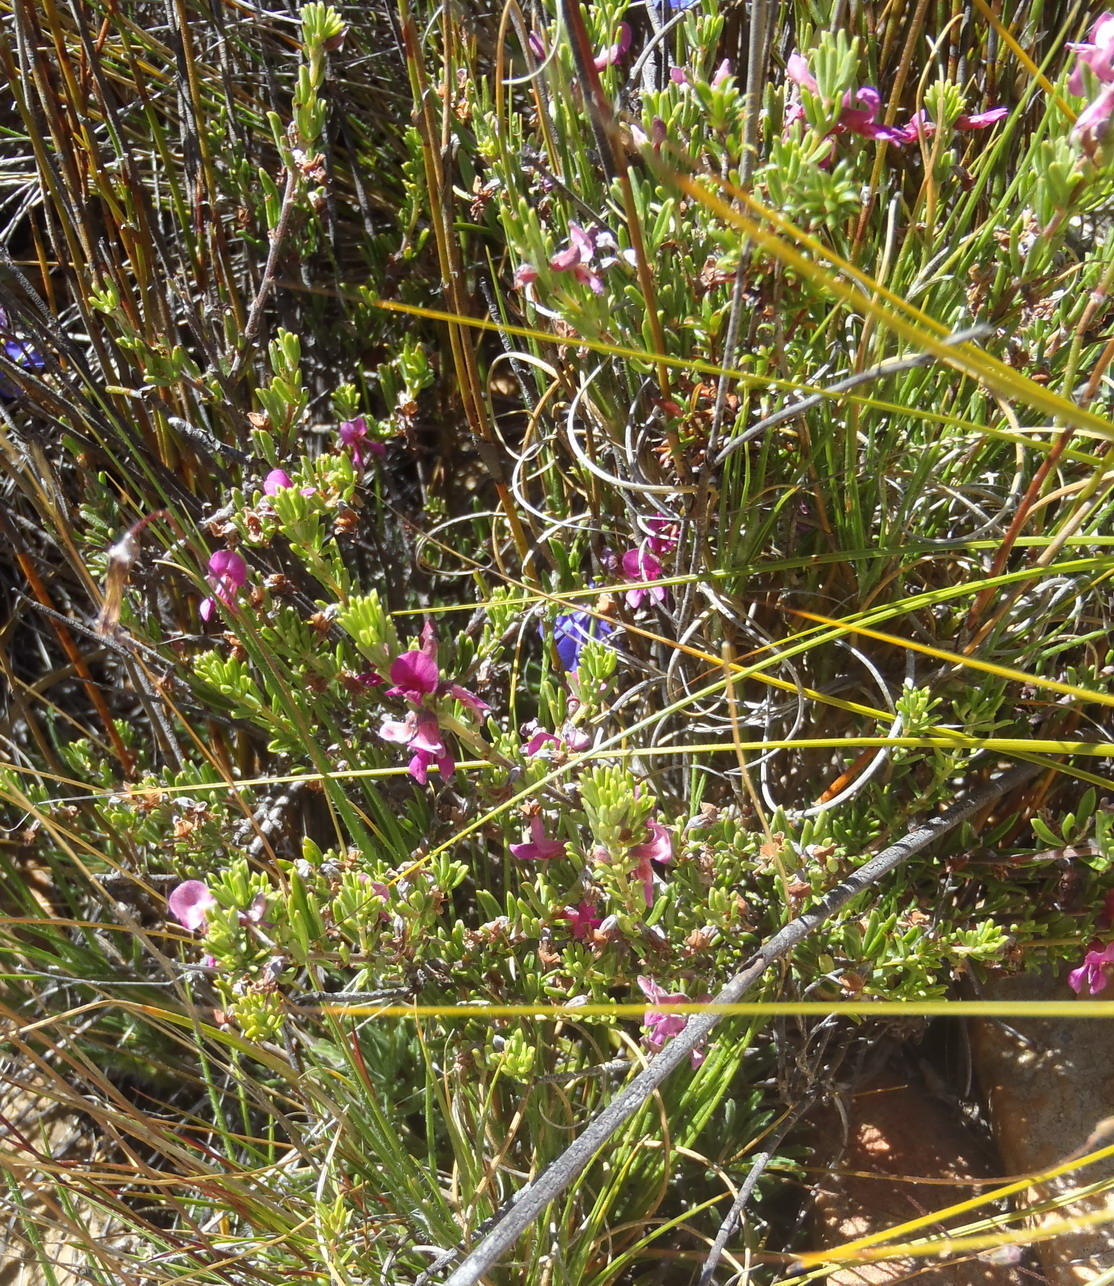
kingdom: Plantae
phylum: Tracheophyta
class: Magnoliopsida
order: Fabales
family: Fabaceae
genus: Indigofera
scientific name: Indigofera pappei
